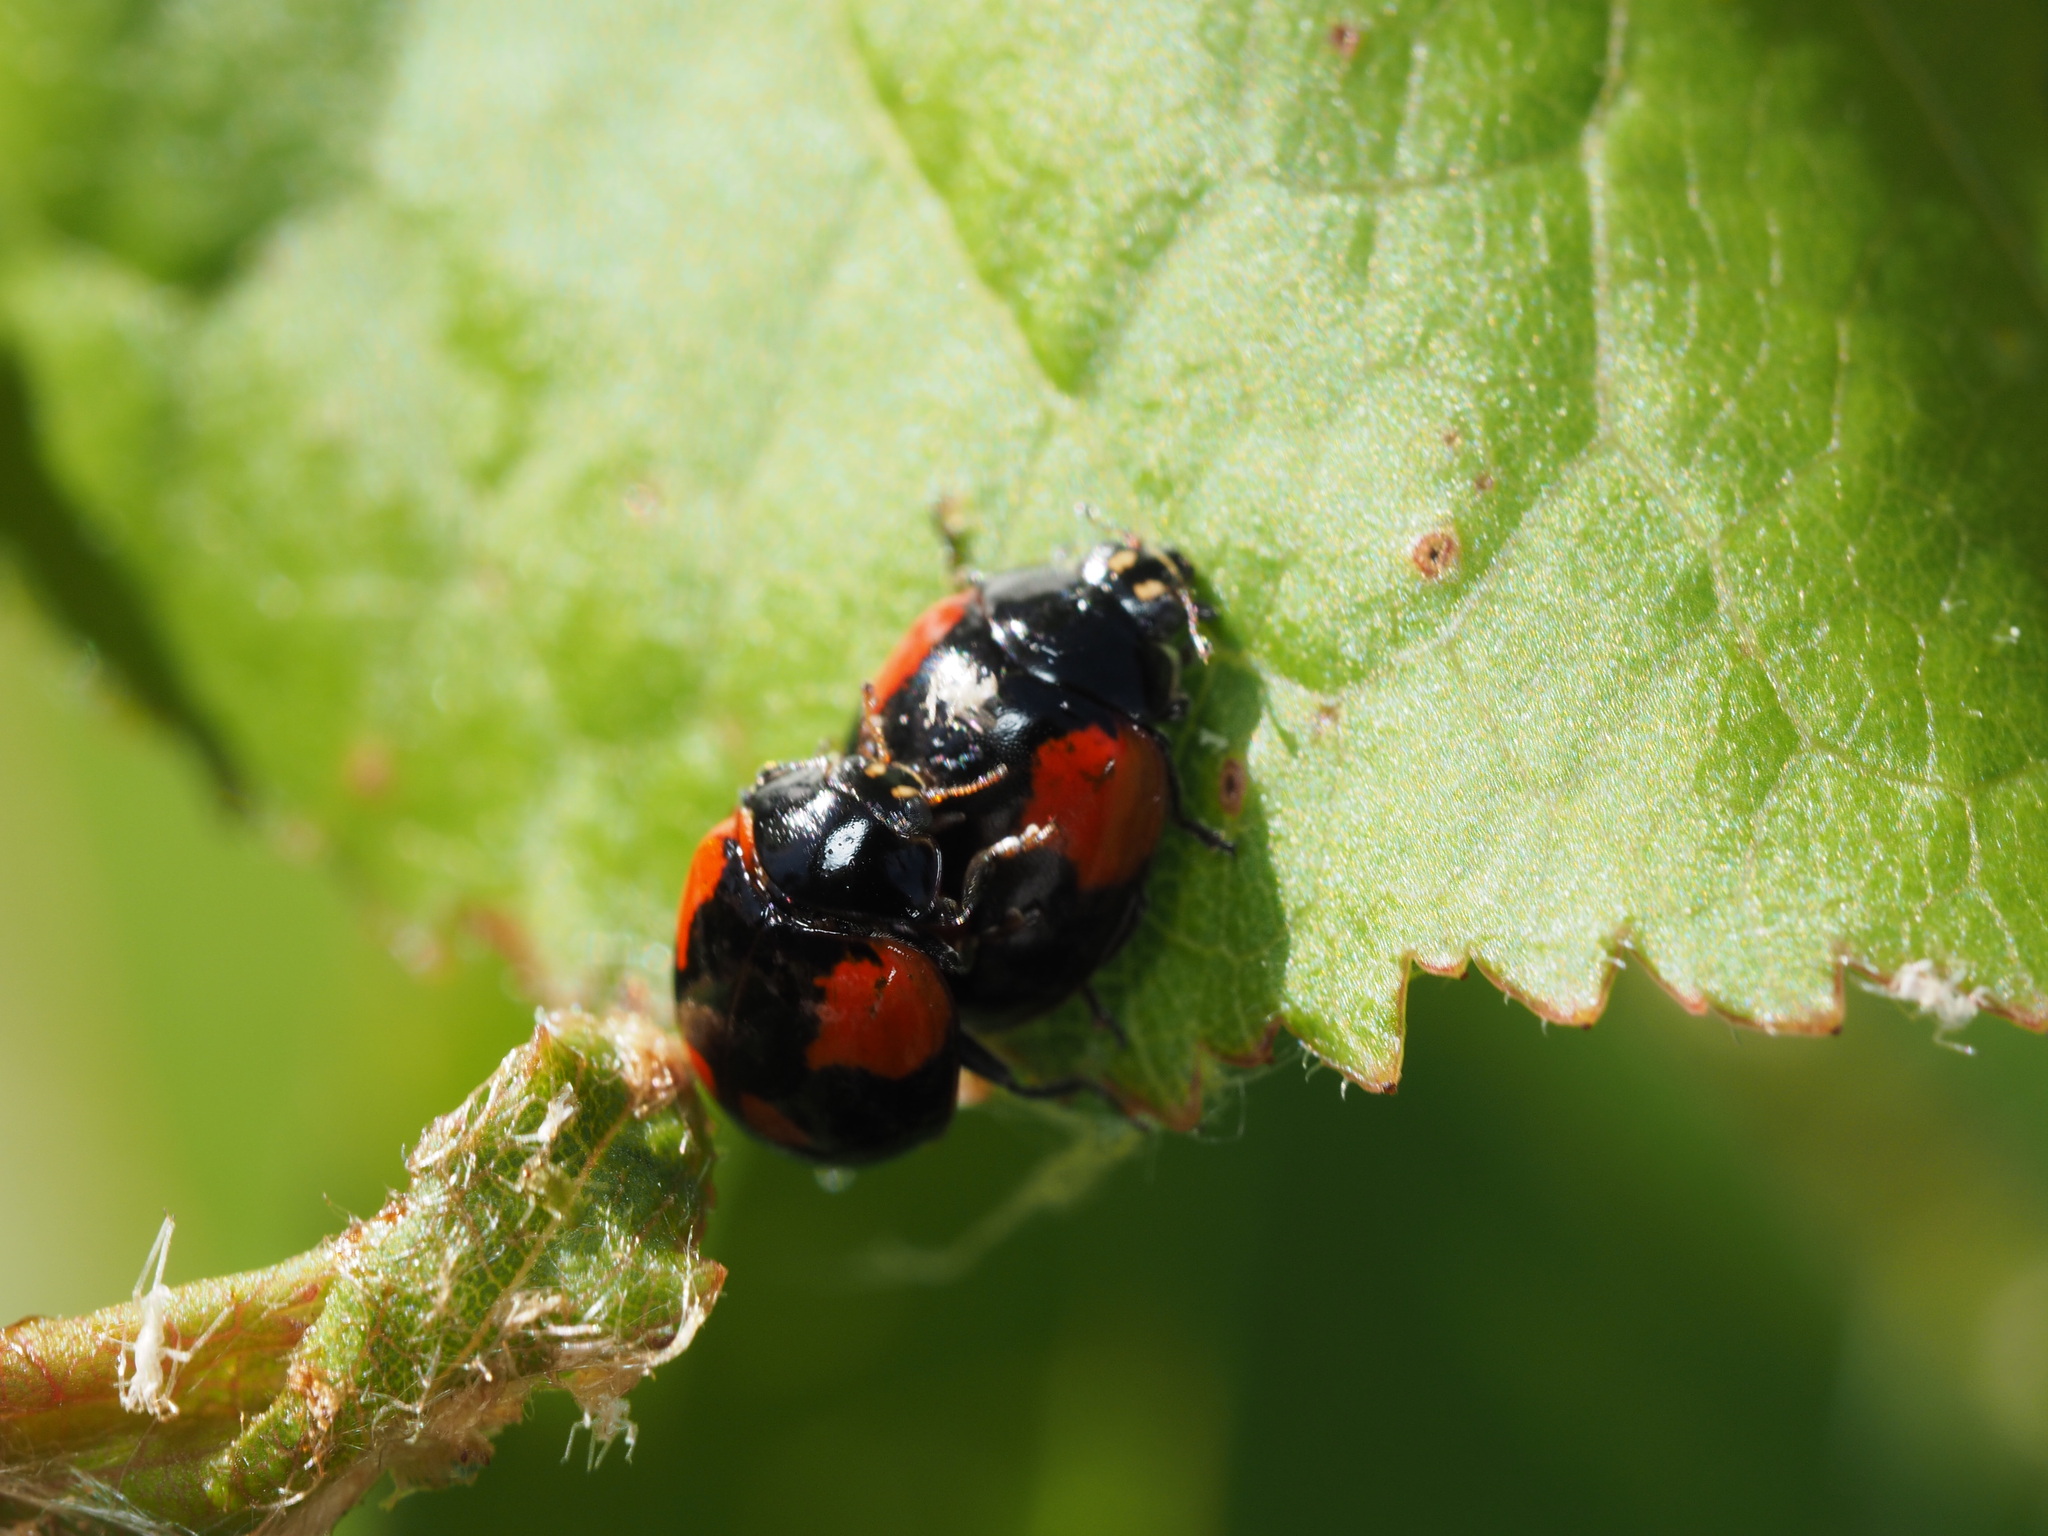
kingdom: Animalia
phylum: Arthropoda
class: Insecta
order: Coleoptera
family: Coccinellidae
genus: Adalia
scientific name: Adalia bipunctata
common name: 2-spot ladybird
